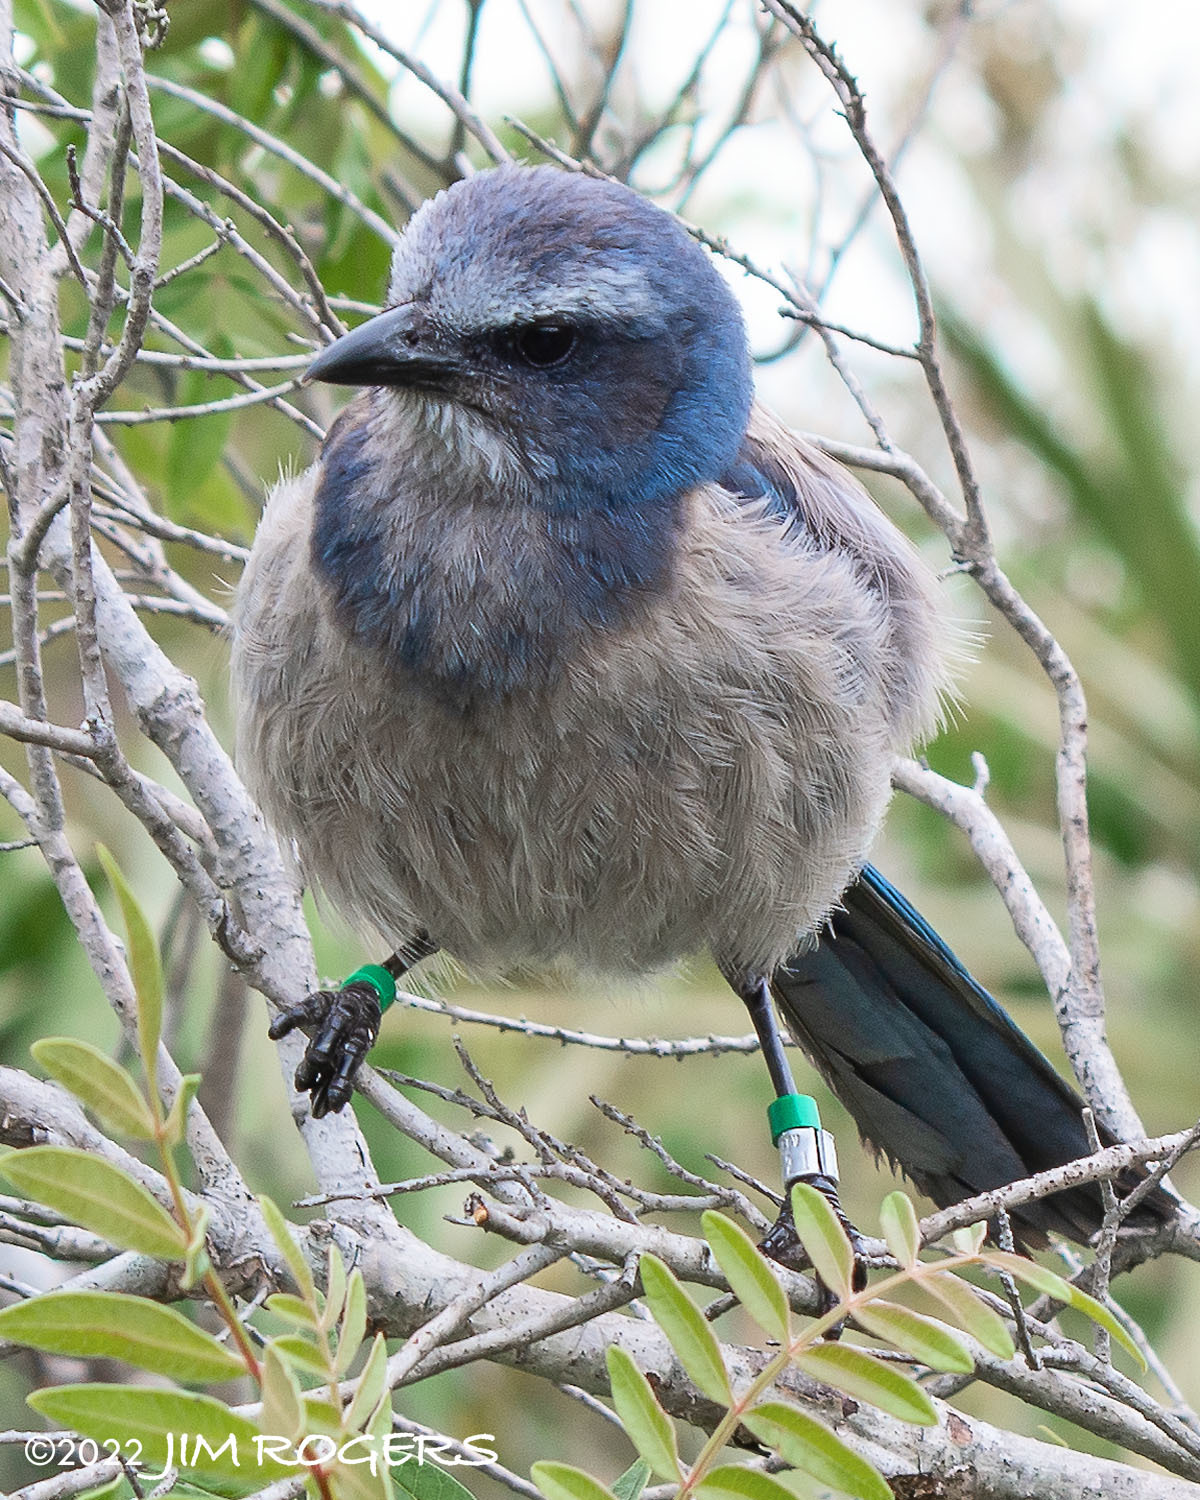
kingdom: Animalia
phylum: Chordata
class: Aves
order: Passeriformes
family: Corvidae
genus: Aphelocoma
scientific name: Aphelocoma coerulescens
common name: Florida scrub jay
